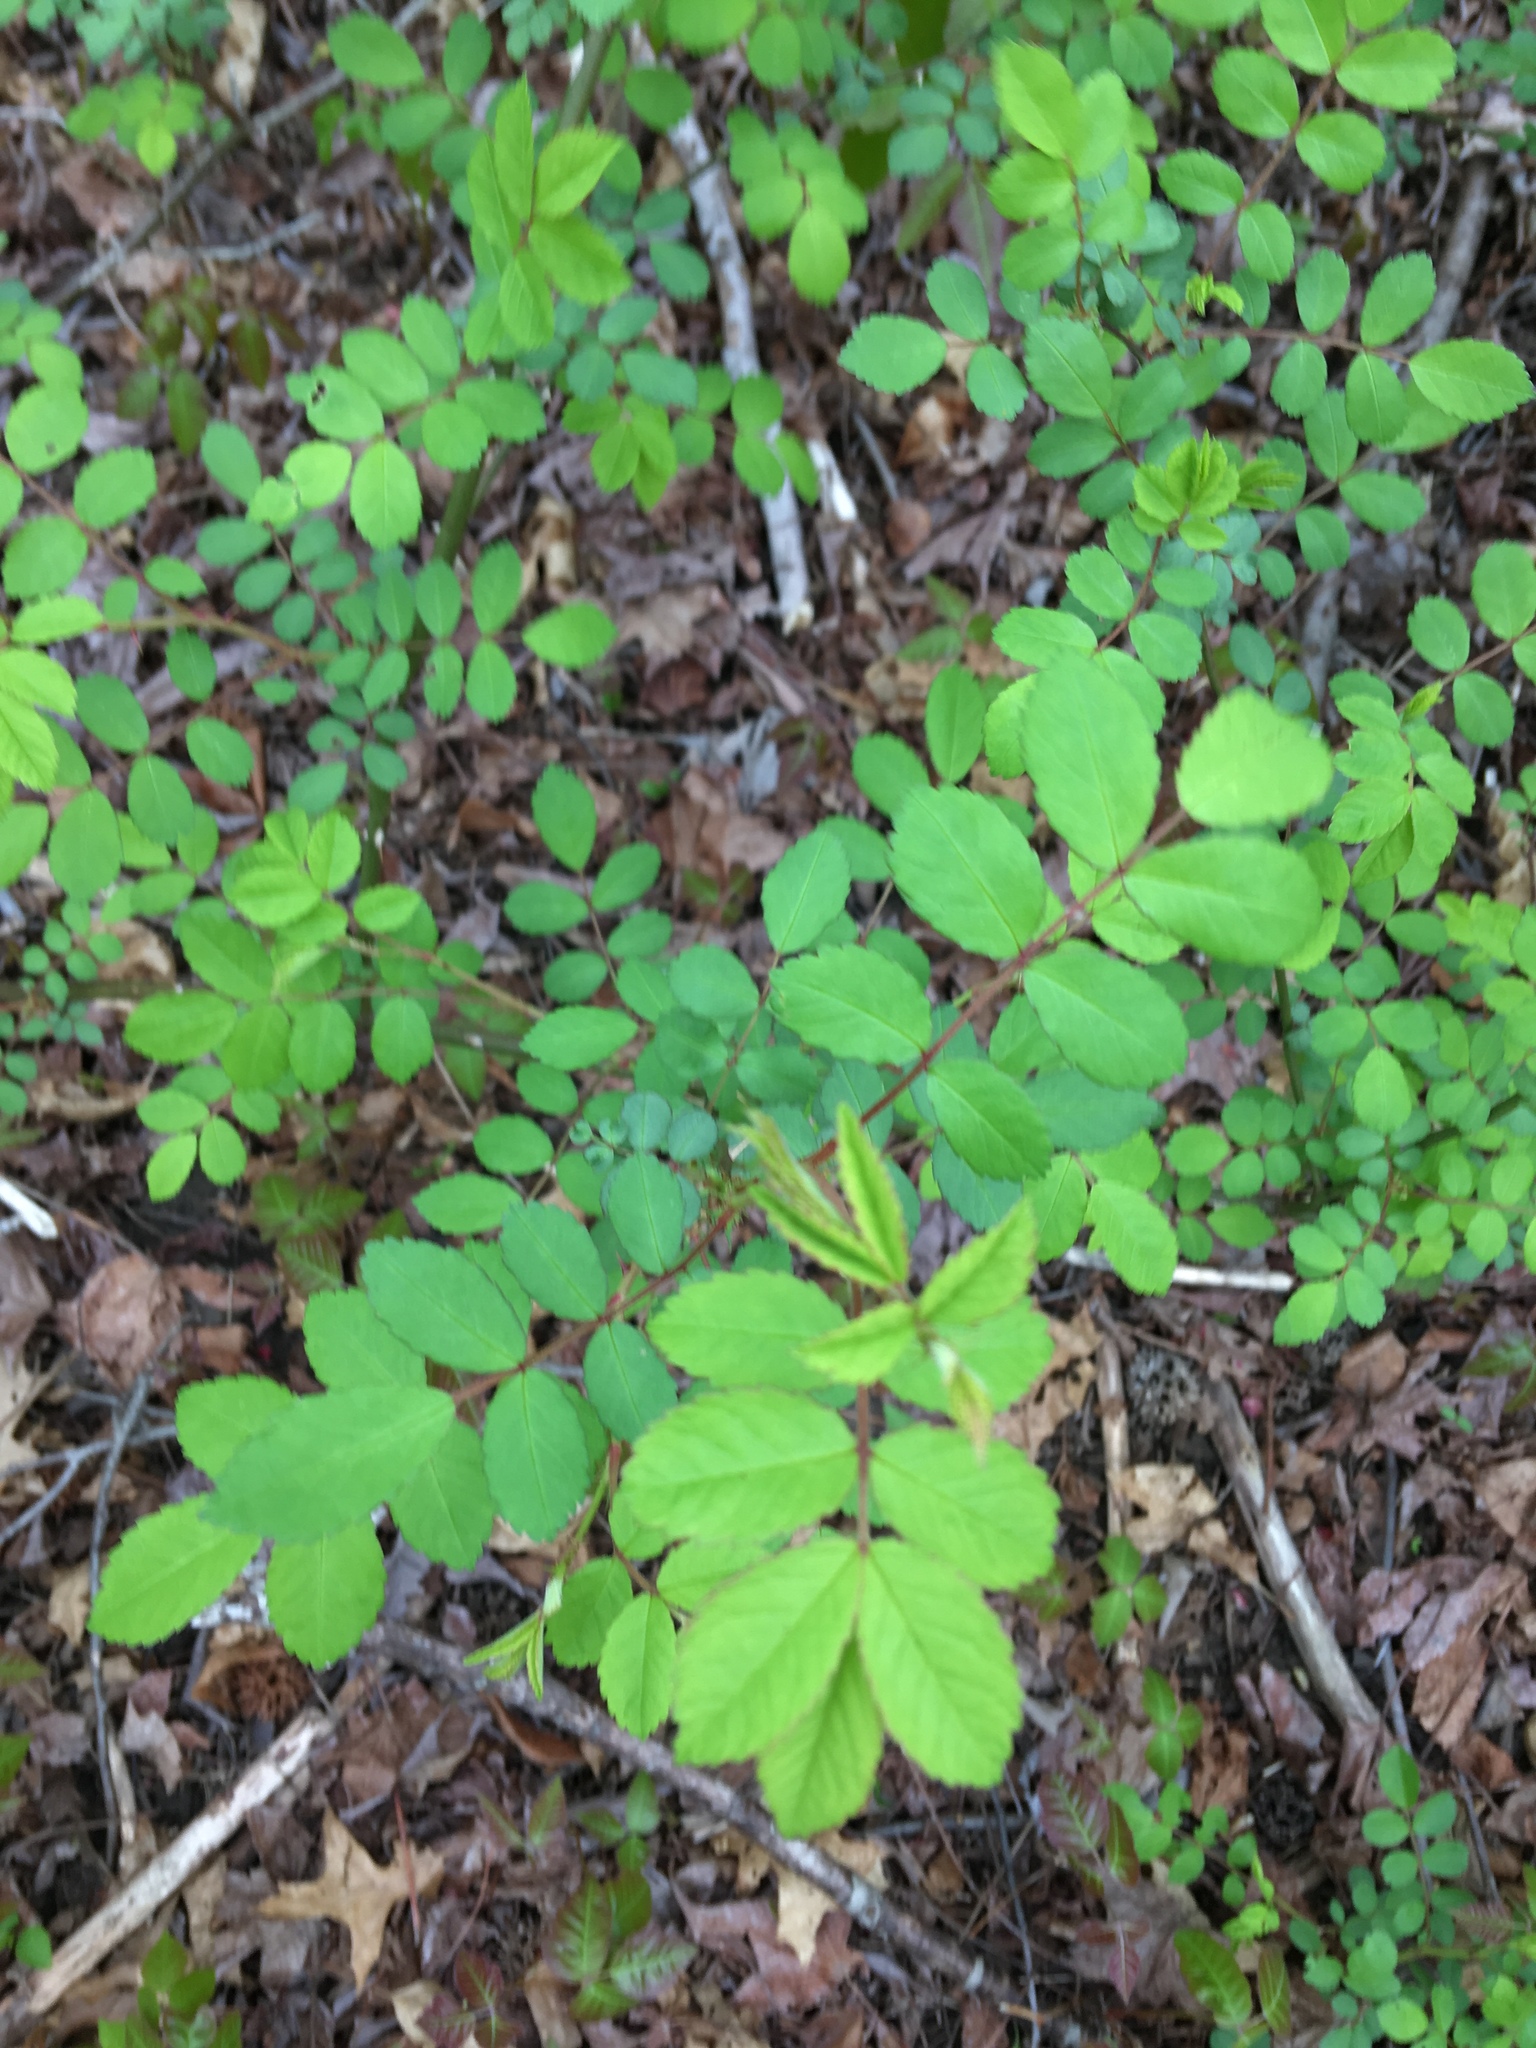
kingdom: Plantae
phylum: Tracheophyta
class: Magnoliopsida
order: Rosales
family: Rosaceae
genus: Rosa
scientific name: Rosa multiflora
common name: Multiflora rose
